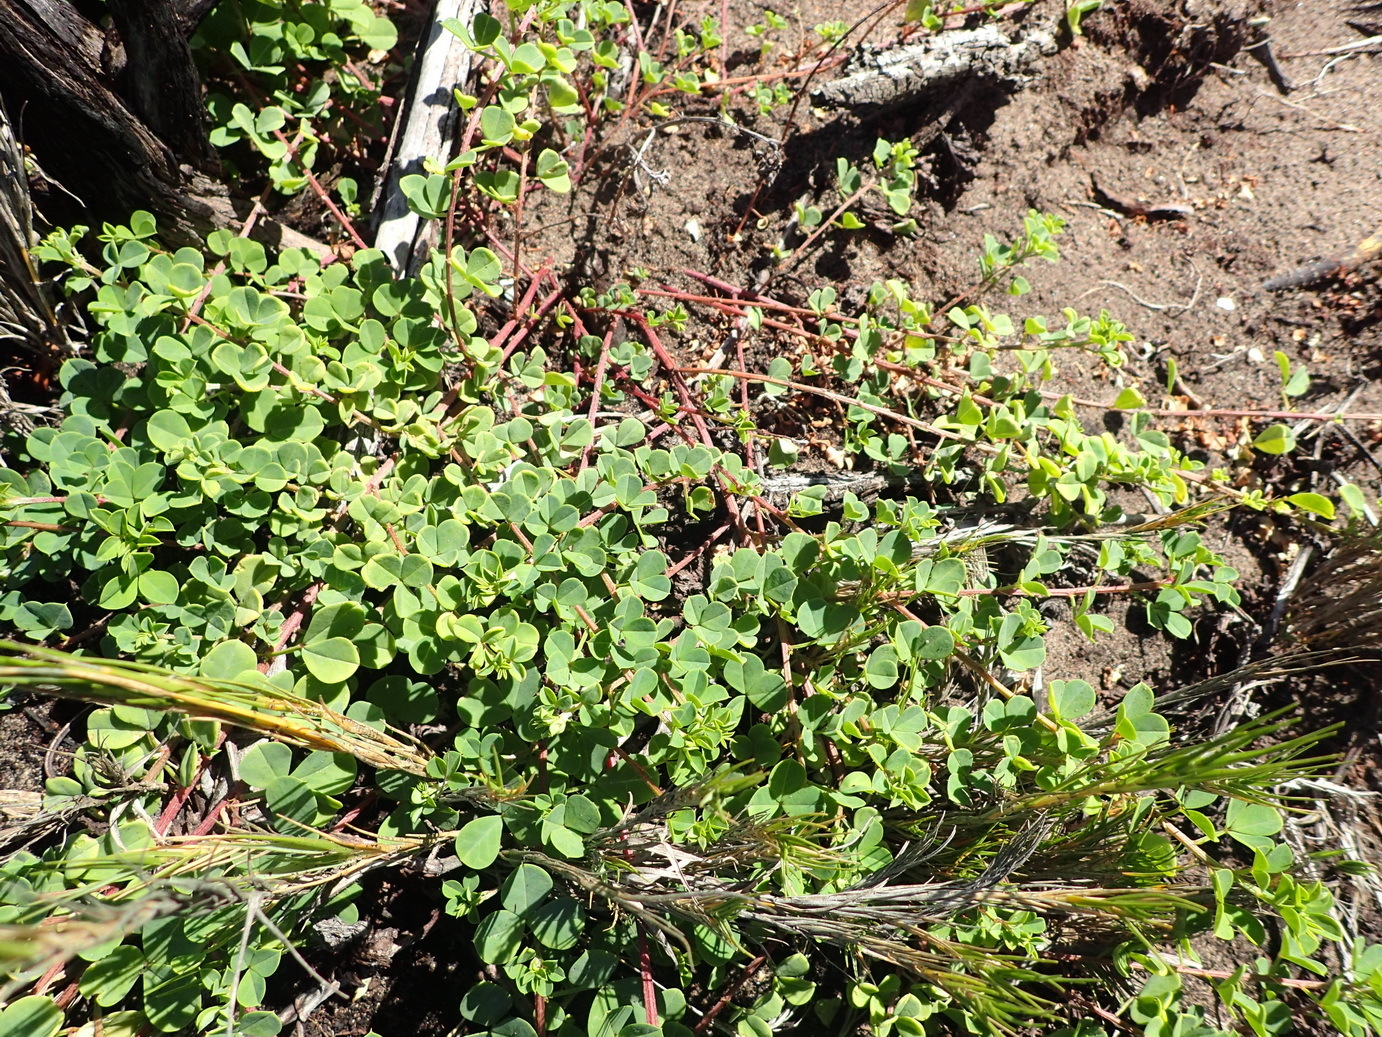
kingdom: Plantae
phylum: Tracheophyta
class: Magnoliopsida
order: Fabales
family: Fabaceae
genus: Indigofera
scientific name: Indigofera erecta
